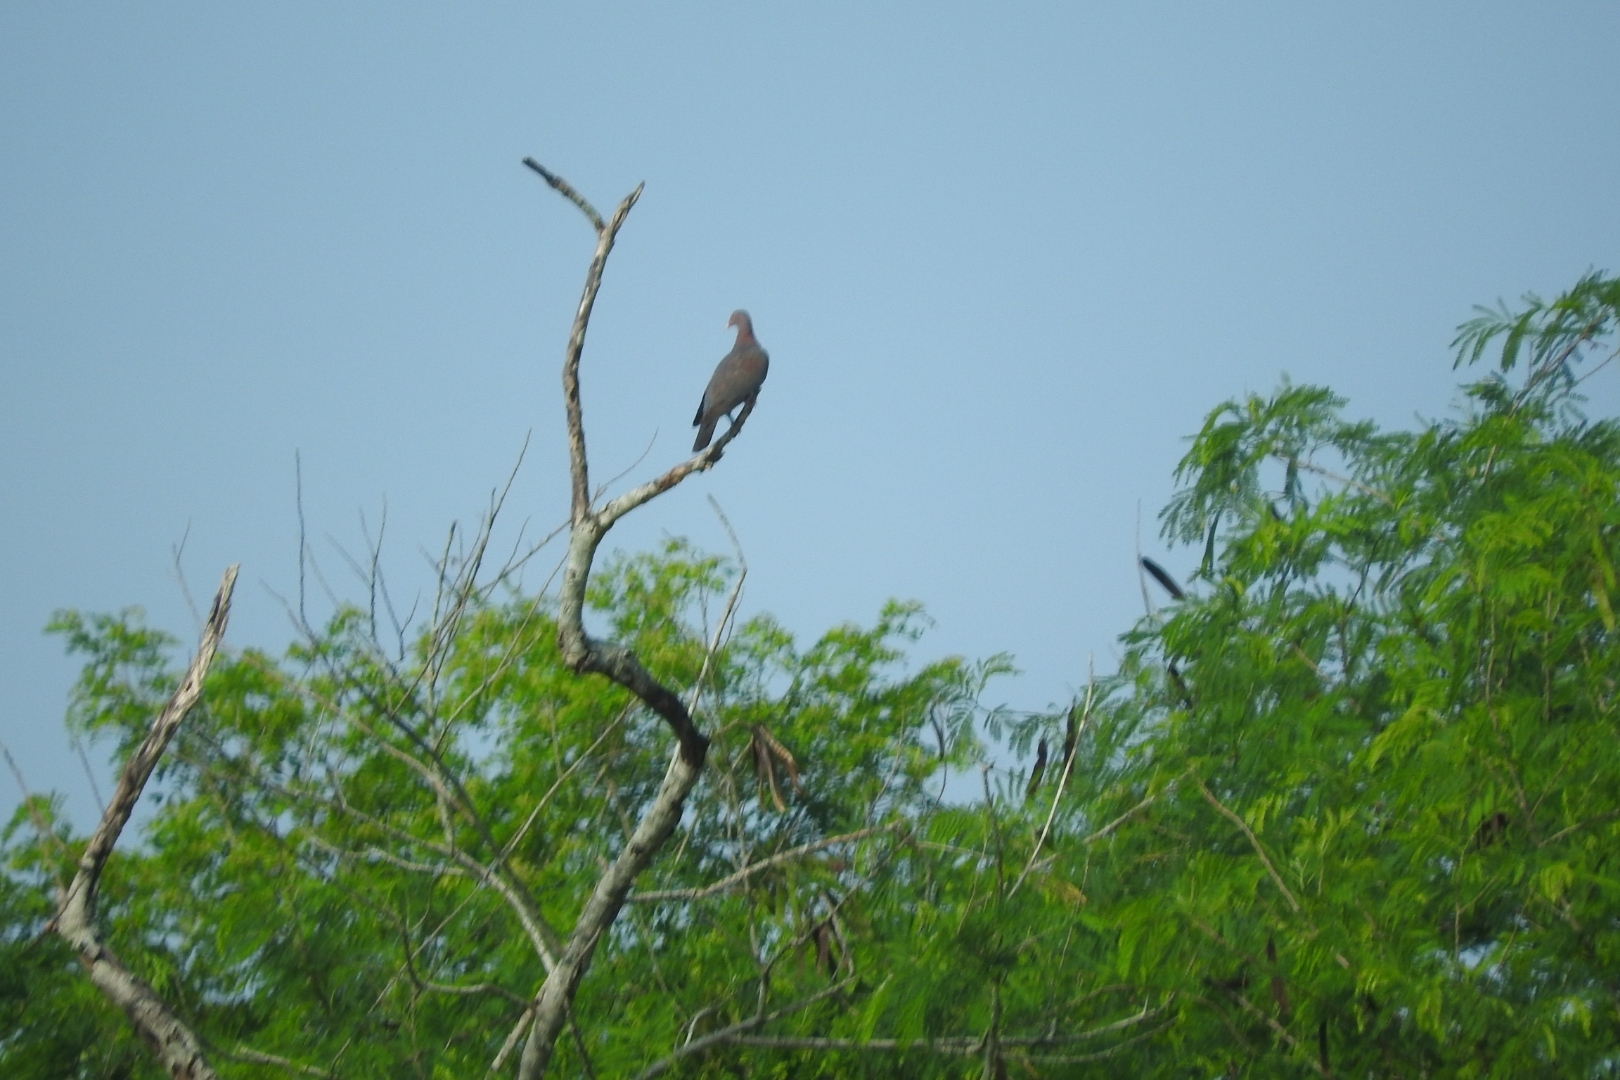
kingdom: Animalia
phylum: Chordata
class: Aves
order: Columbiformes
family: Columbidae
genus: Patagioenas
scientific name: Patagioenas flavirostris
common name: Red-billed pigeon
